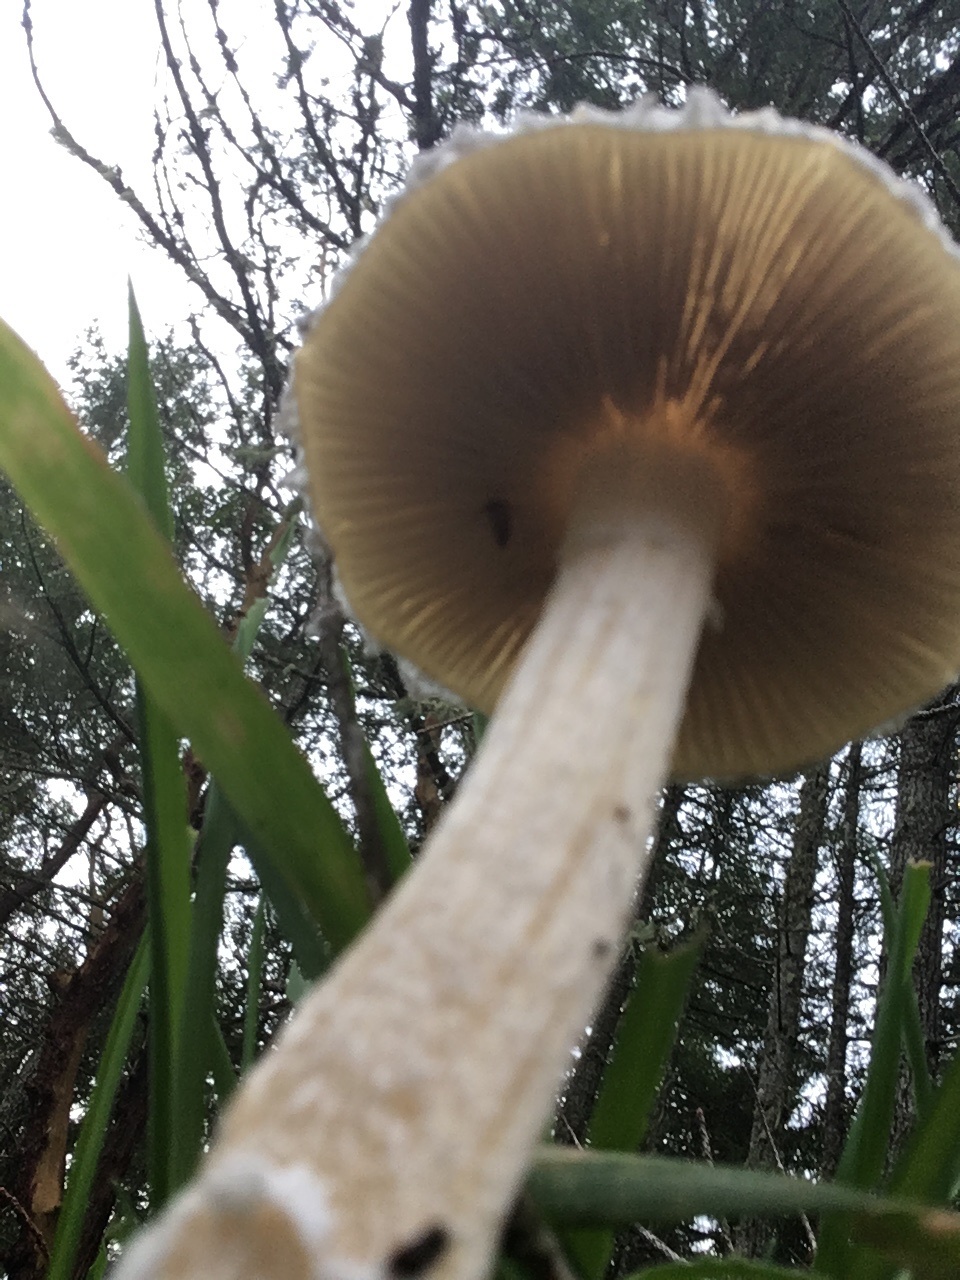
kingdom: Fungi
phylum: Basidiomycota
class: Agaricomycetes
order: Agaricales
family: Strophariaceae
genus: Stropharia
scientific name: Stropharia ambigua
